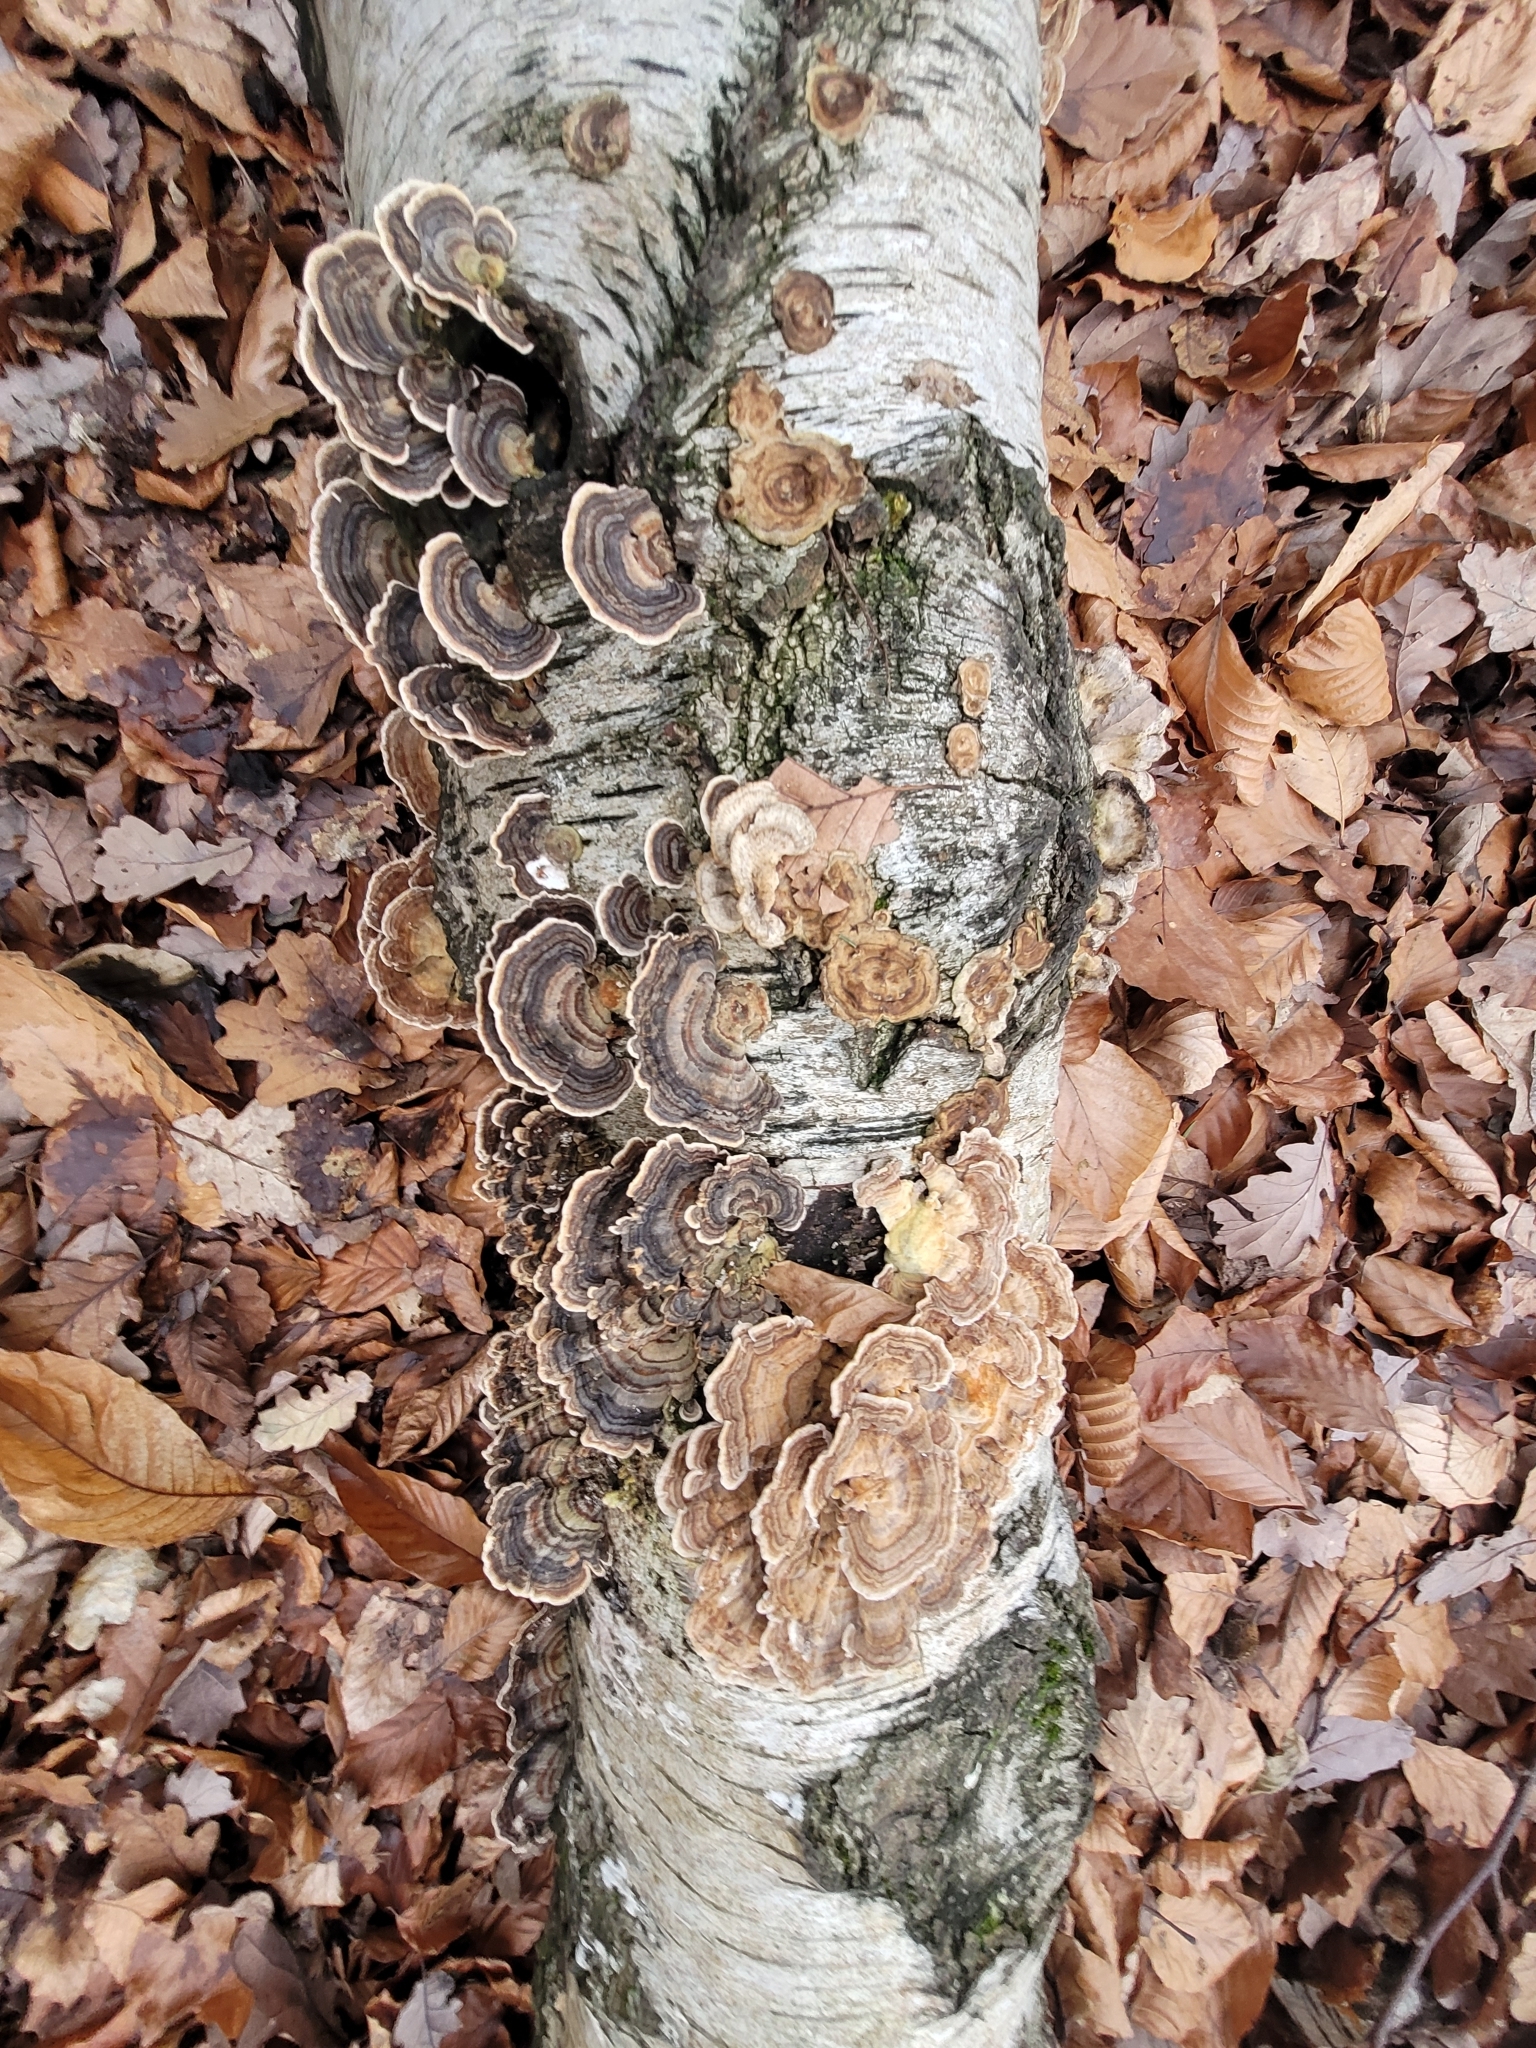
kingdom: Fungi
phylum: Basidiomycota
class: Agaricomycetes
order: Polyporales
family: Polyporaceae
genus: Trametes
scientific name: Trametes versicolor
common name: Turkeytail
